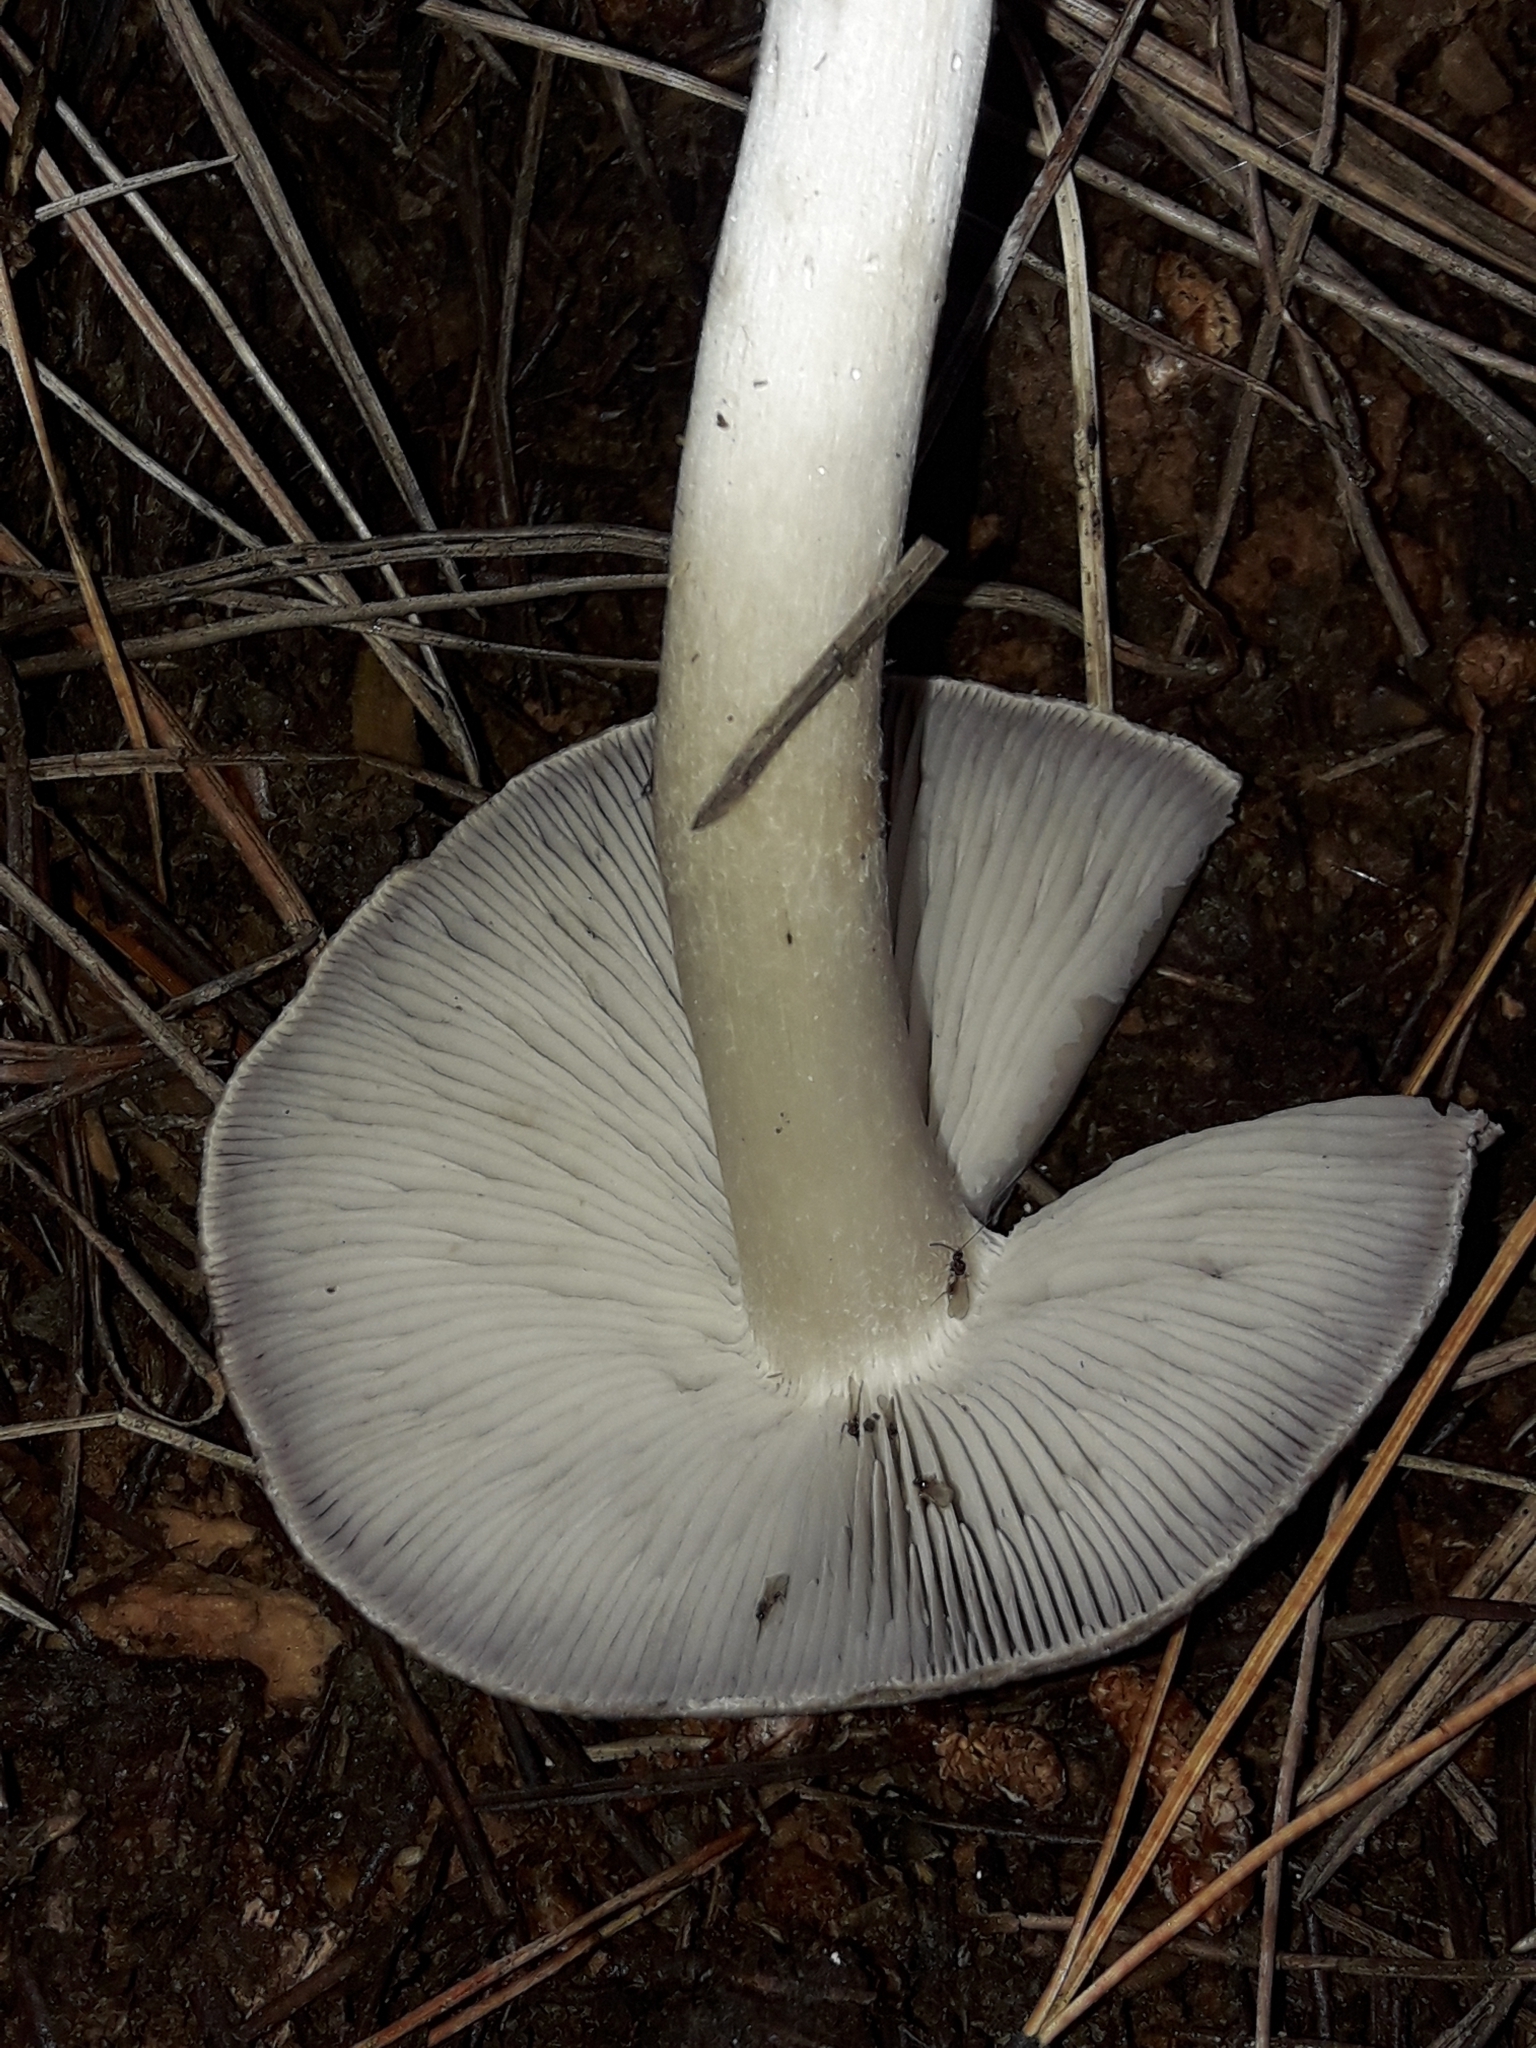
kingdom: Fungi
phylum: Basidiomycota
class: Agaricomycetes
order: Agaricales
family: Tricholomataceae
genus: Tricholoma
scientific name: Tricholoma terreum
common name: Grey knight
